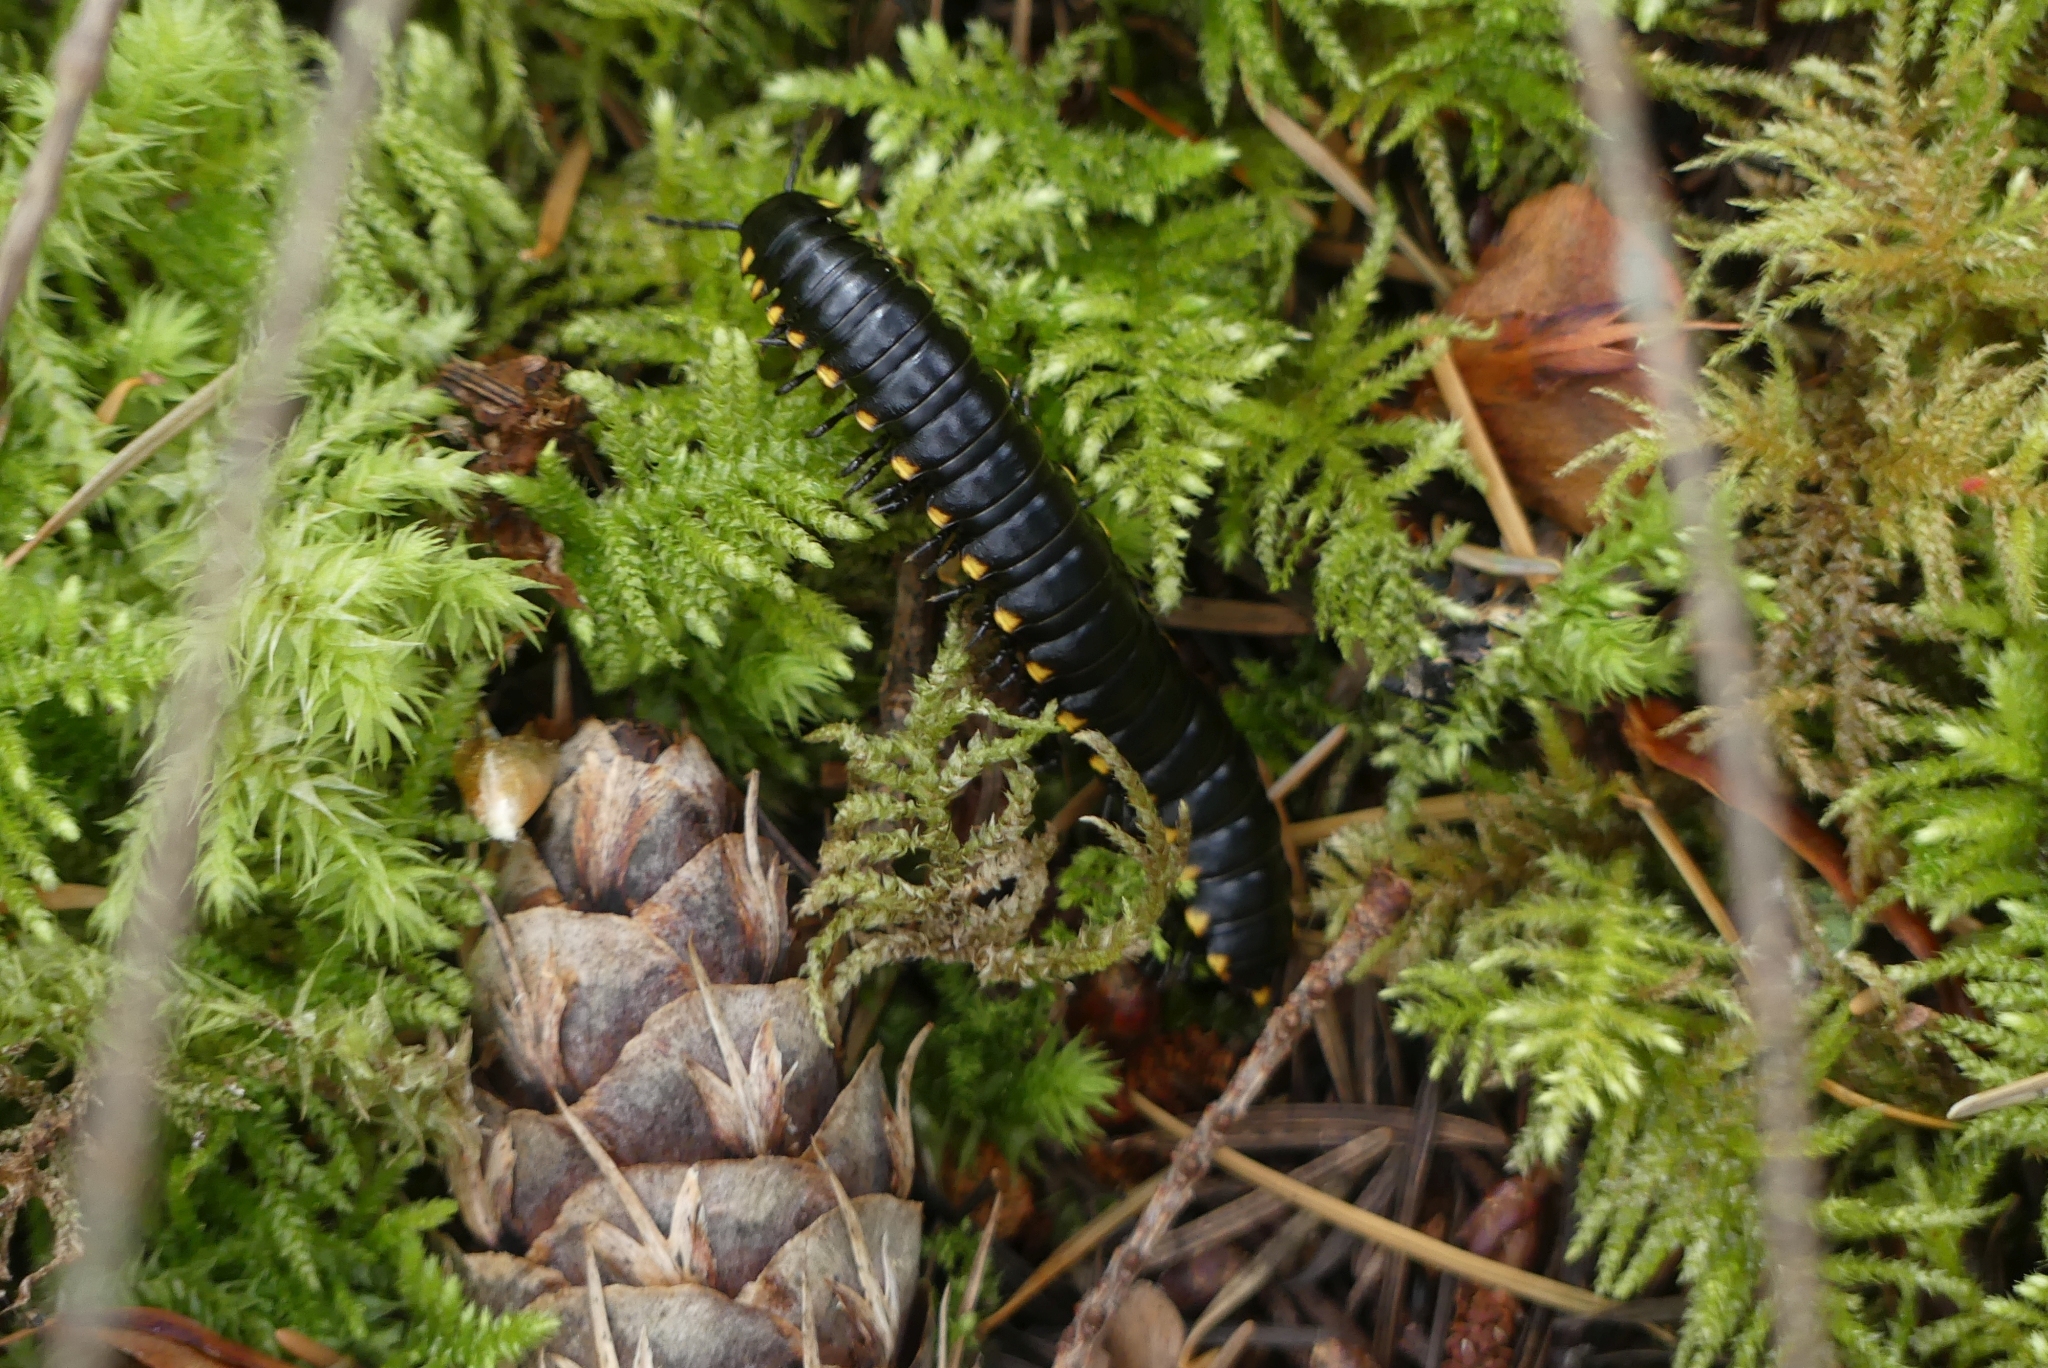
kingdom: Animalia
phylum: Arthropoda
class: Diplopoda
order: Polydesmida
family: Xystodesmidae
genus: Harpaphe
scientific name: Harpaphe haydeniana
